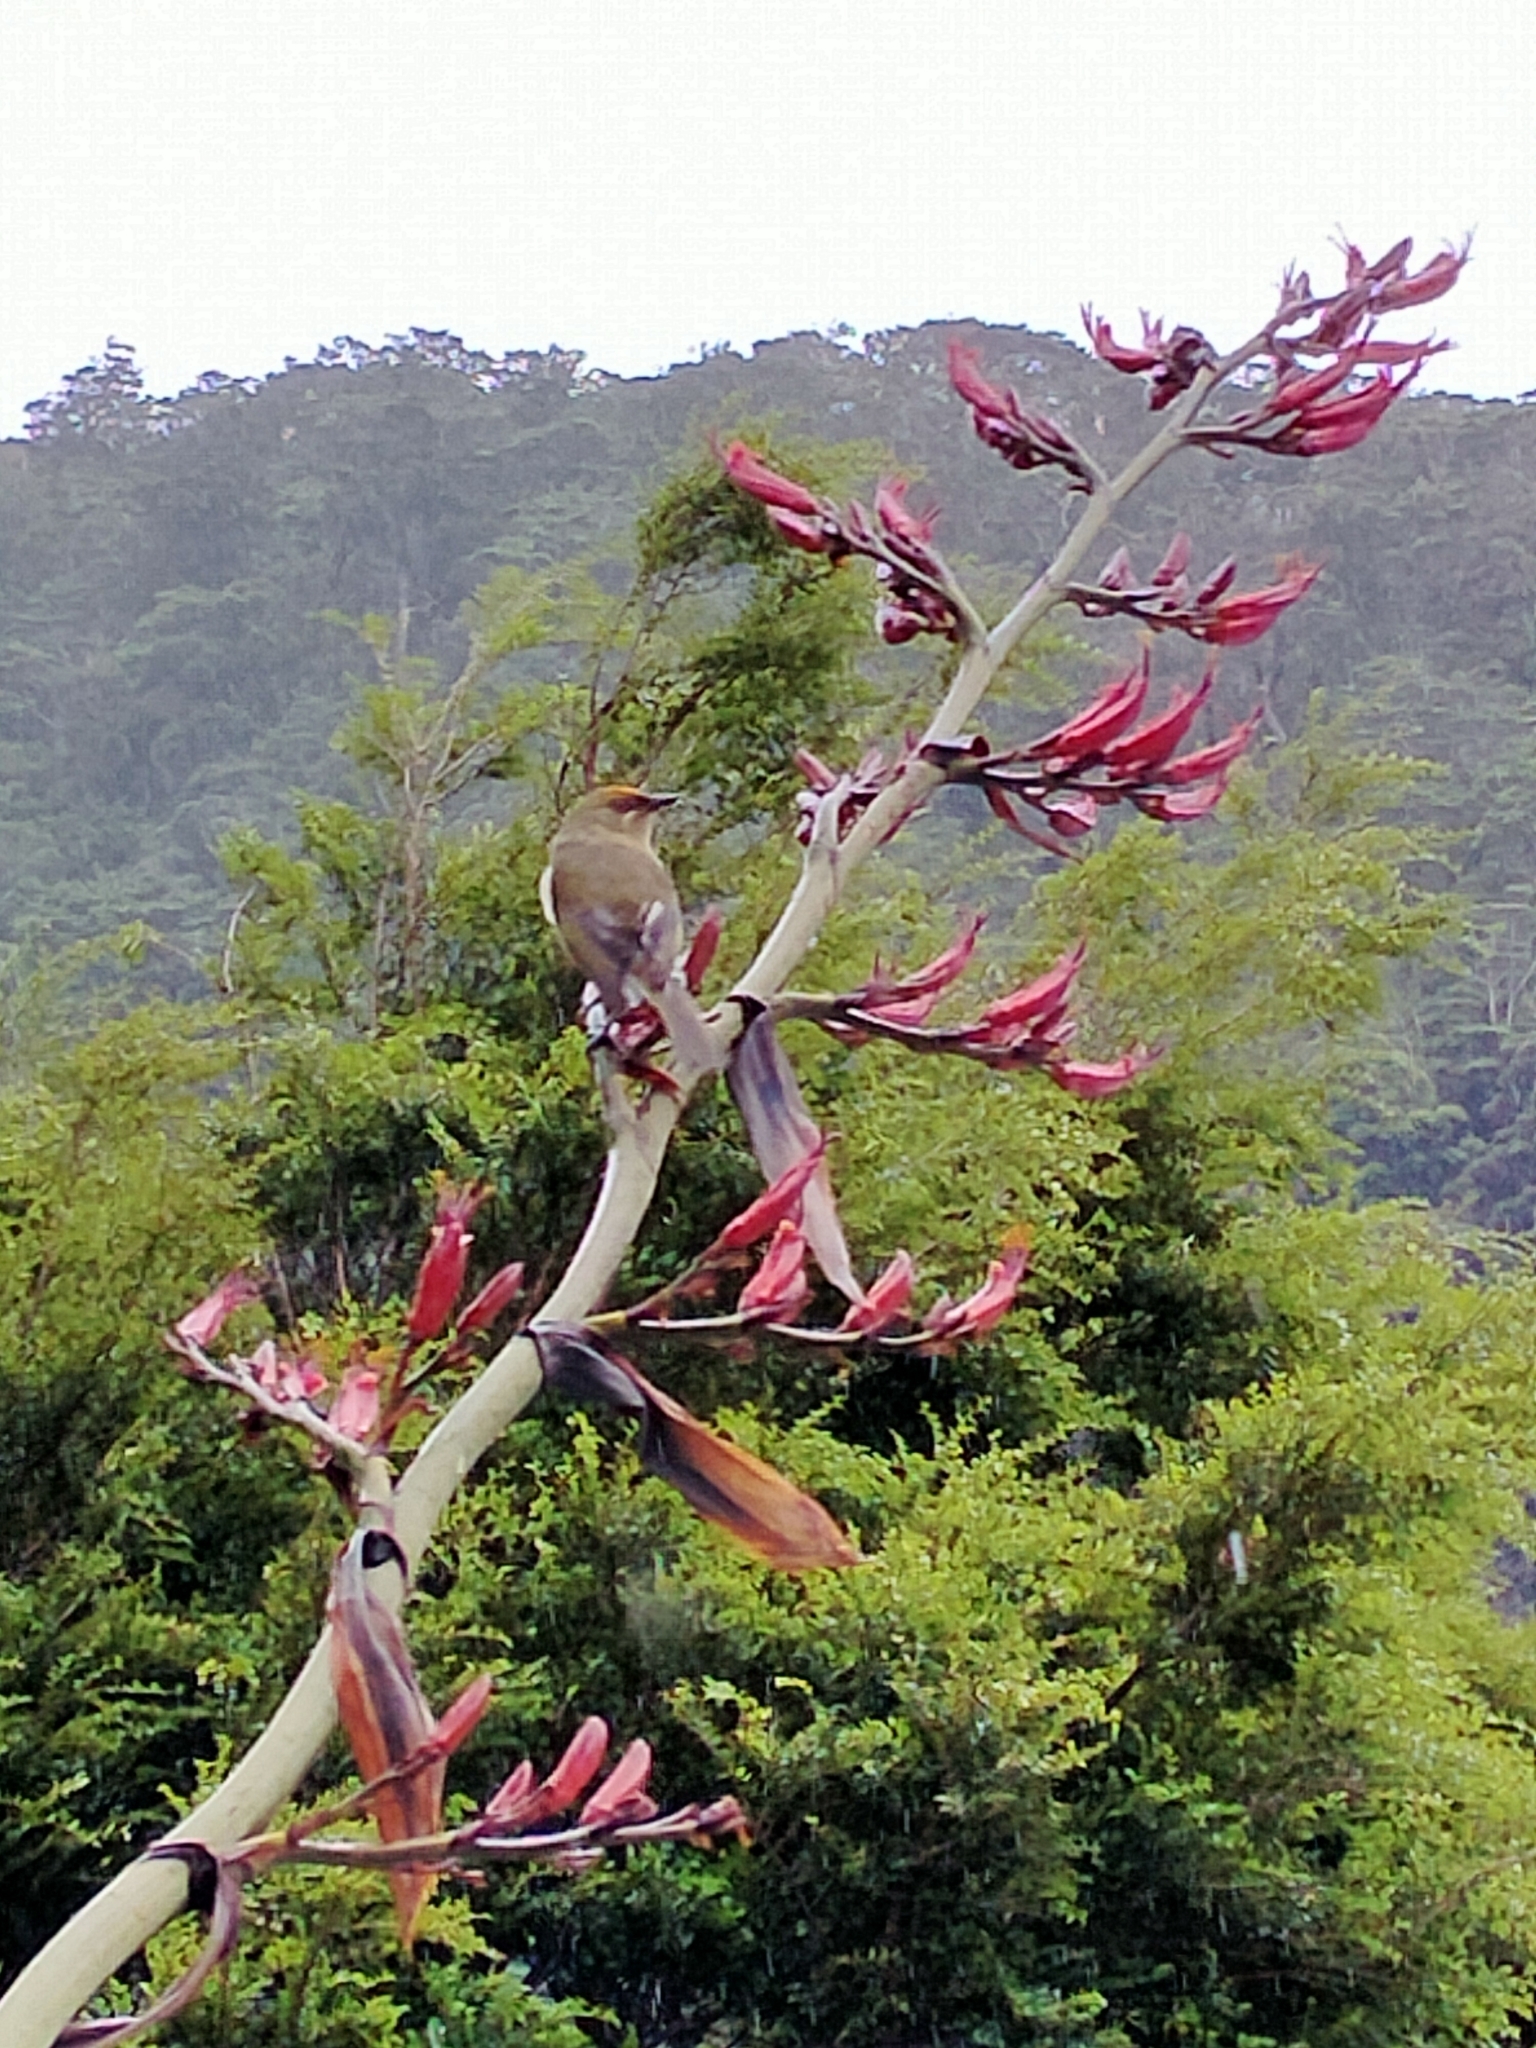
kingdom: Animalia
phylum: Chordata
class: Aves
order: Passeriformes
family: Meliphagidae
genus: Anthornis
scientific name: Anthornis melanura
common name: New zealand bellbird
